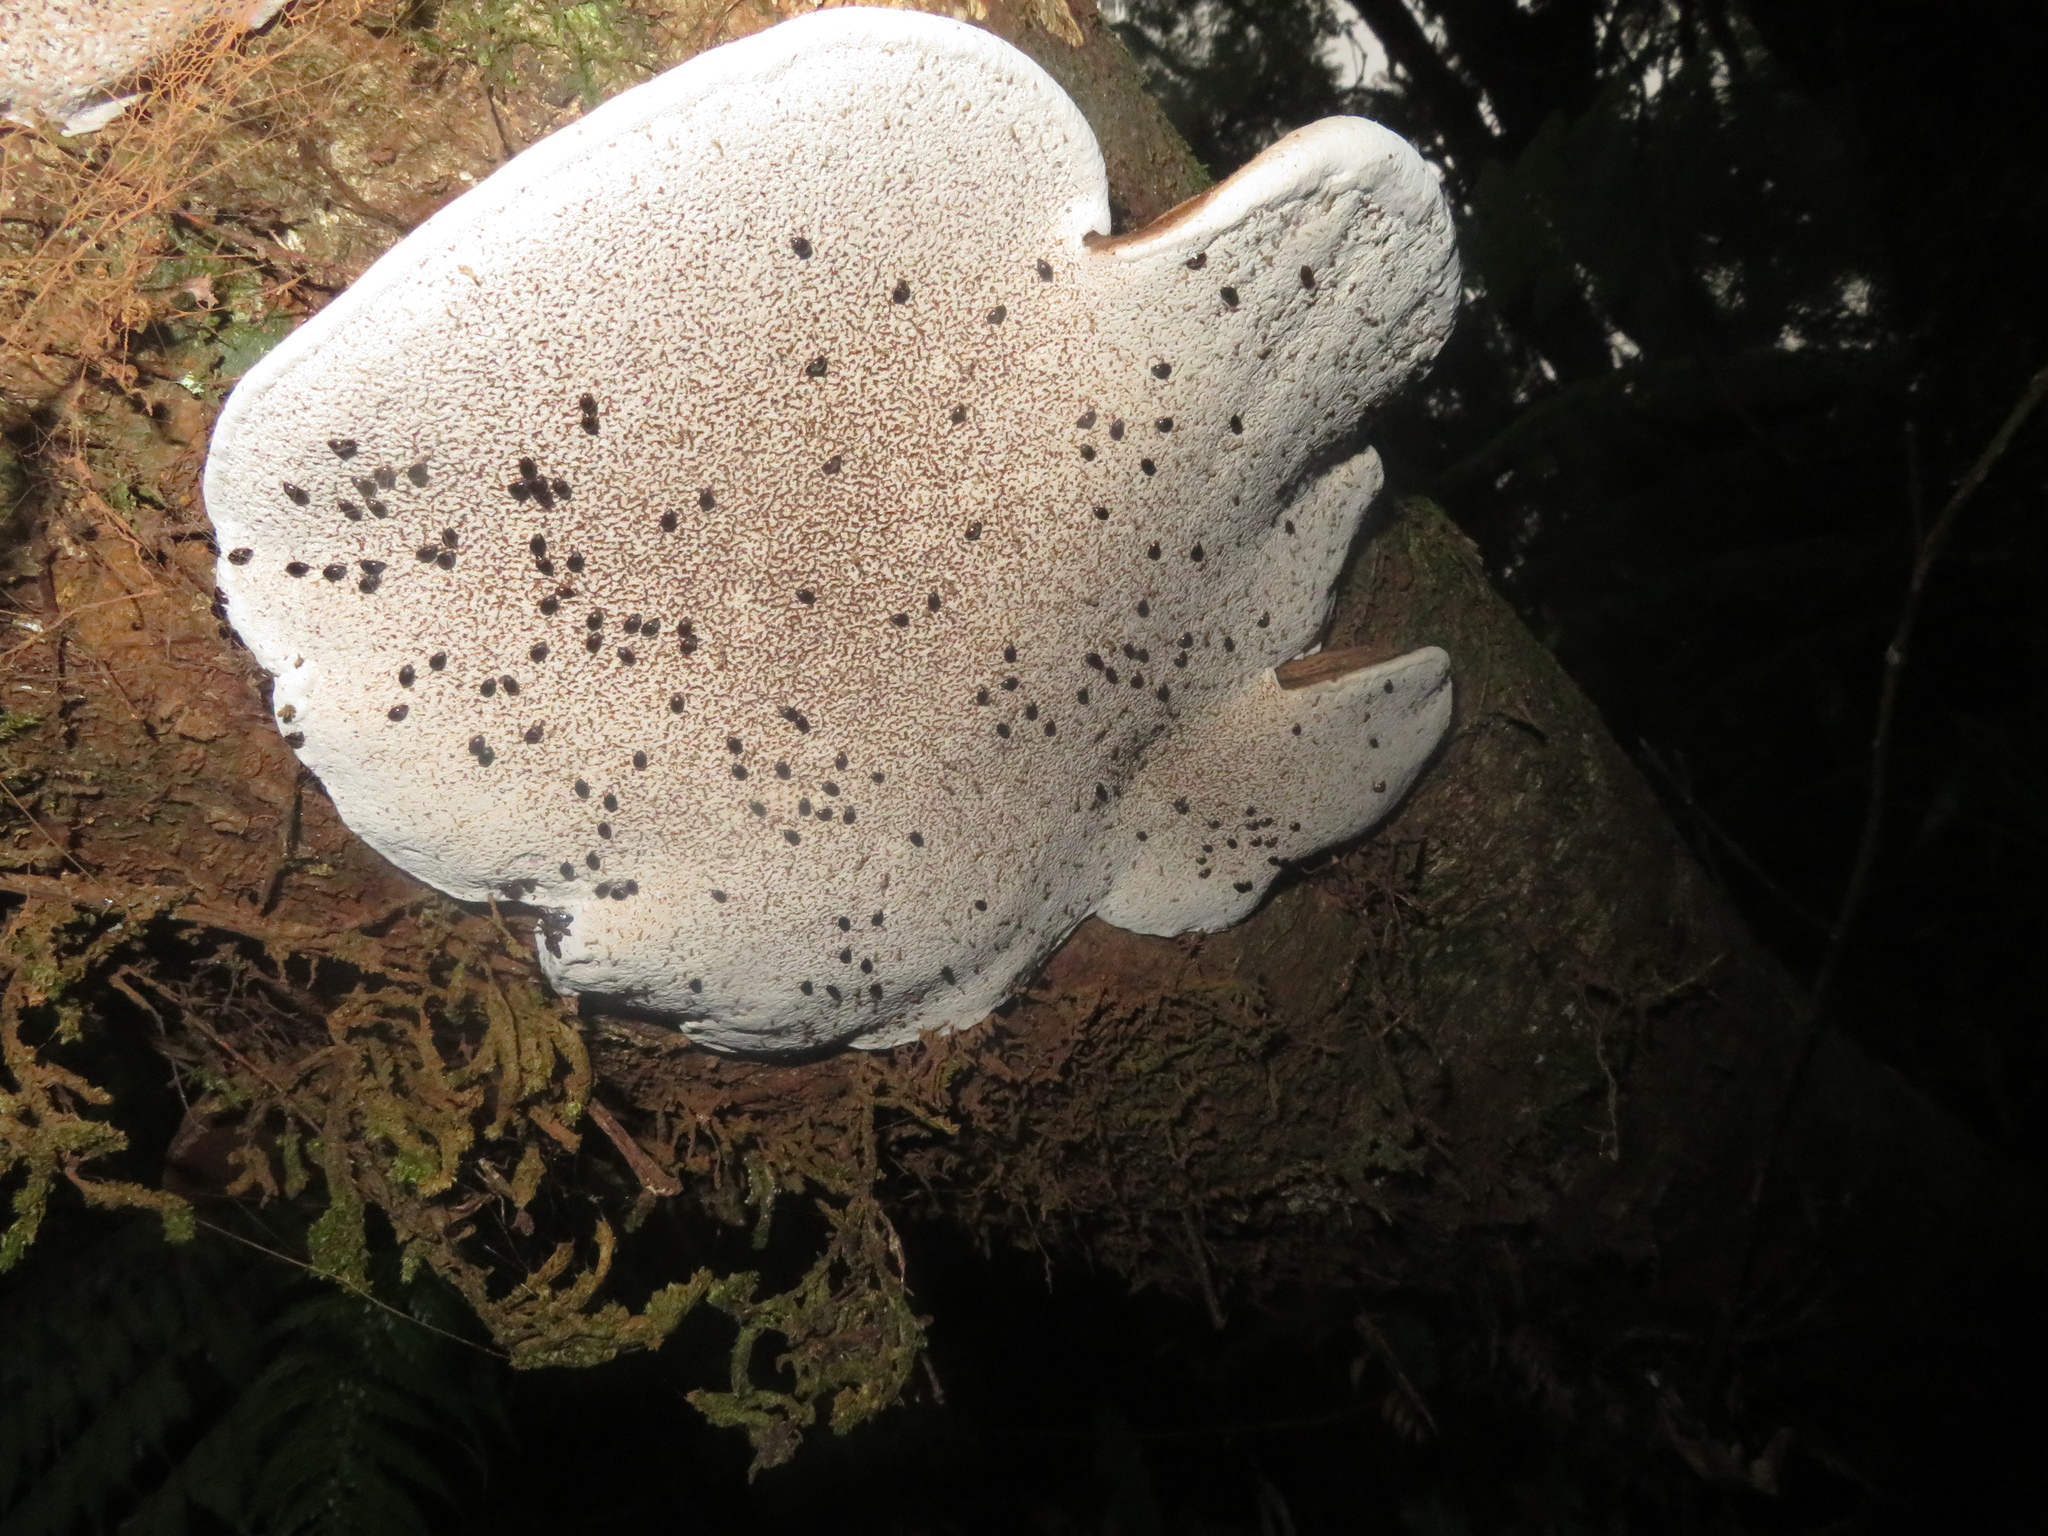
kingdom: Animalia
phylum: Arthropoda
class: Insecta
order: Coleoptera
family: Leiodidae
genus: Zearagytodes
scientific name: Zearagytodes maculifer
